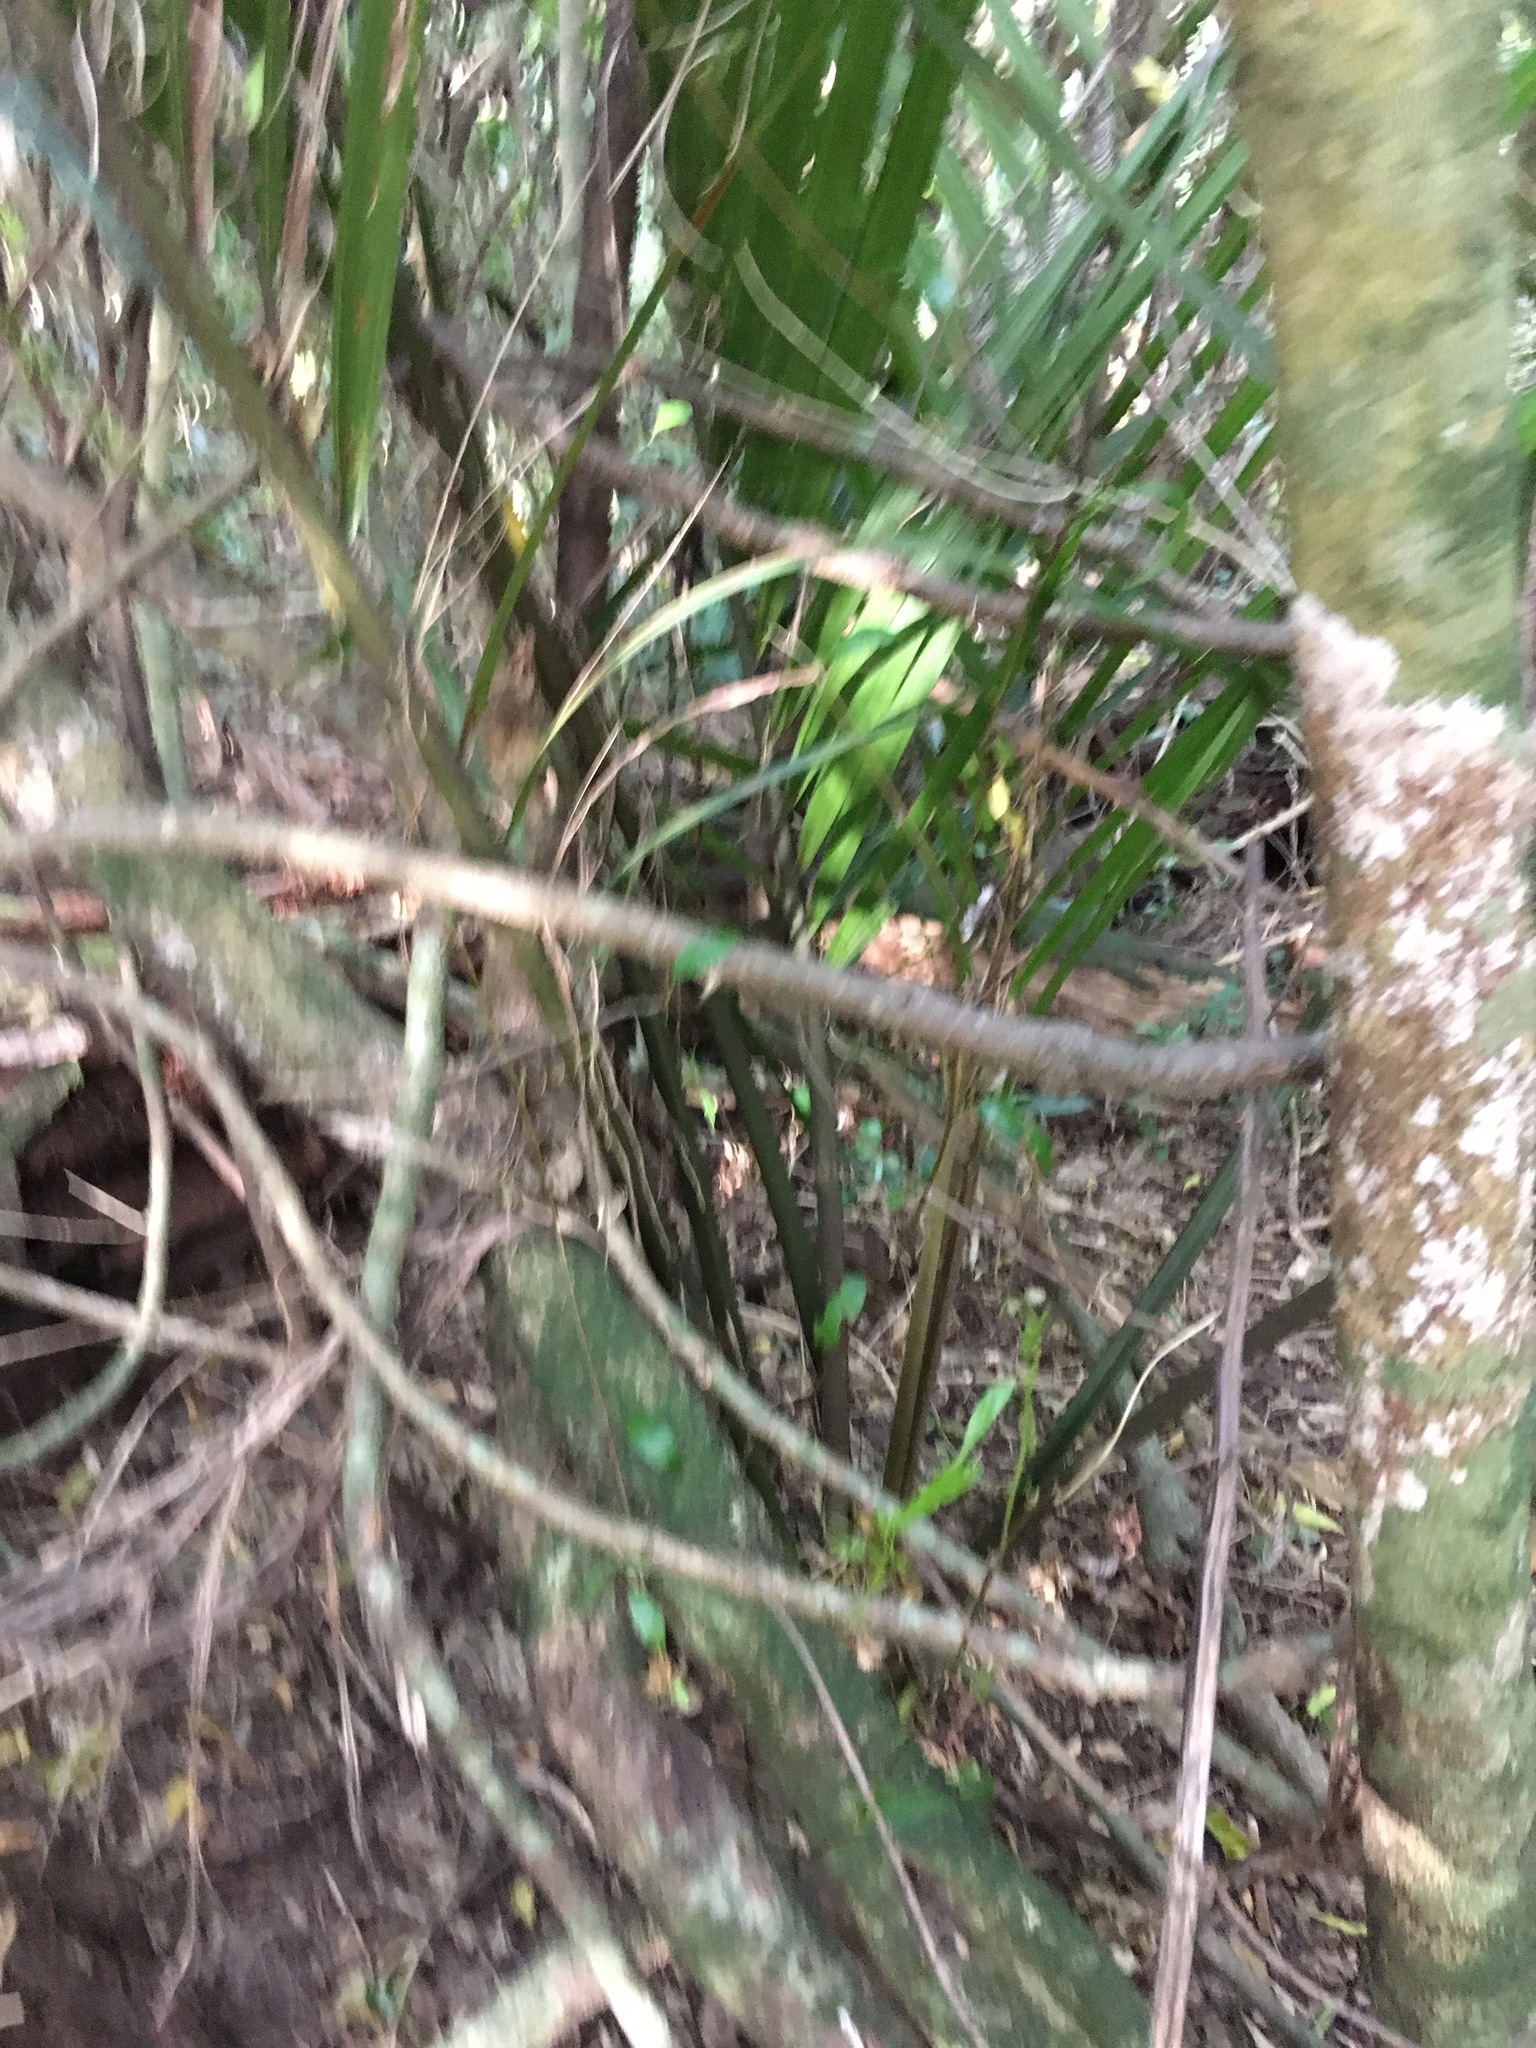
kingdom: Plantae
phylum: Tracheophyta
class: Magnoliopsida
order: Malpighiales
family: Passifloraceae
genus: Passiflora
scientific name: Passiflora tetrandra
